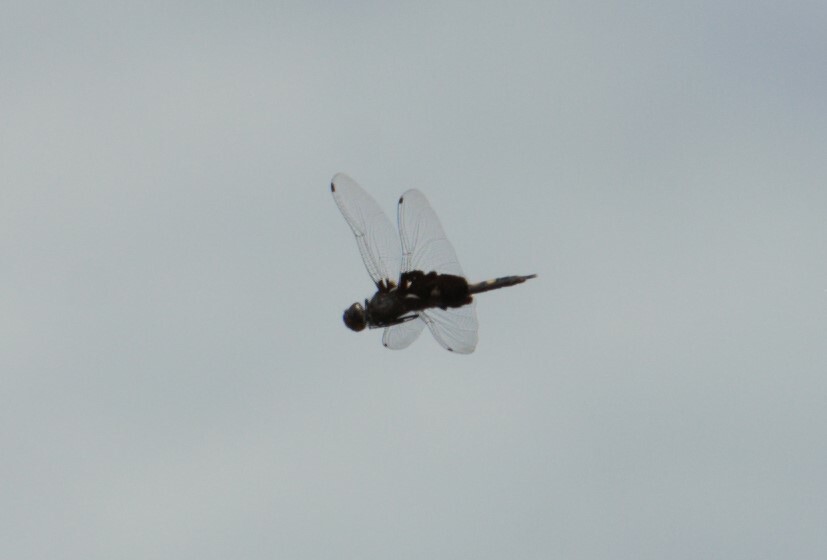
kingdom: Animalia
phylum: Arthropoda
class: Insecta
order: Odonata
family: Libellulidae
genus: Tramea
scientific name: Tramea lacerata
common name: Black saddlebags
